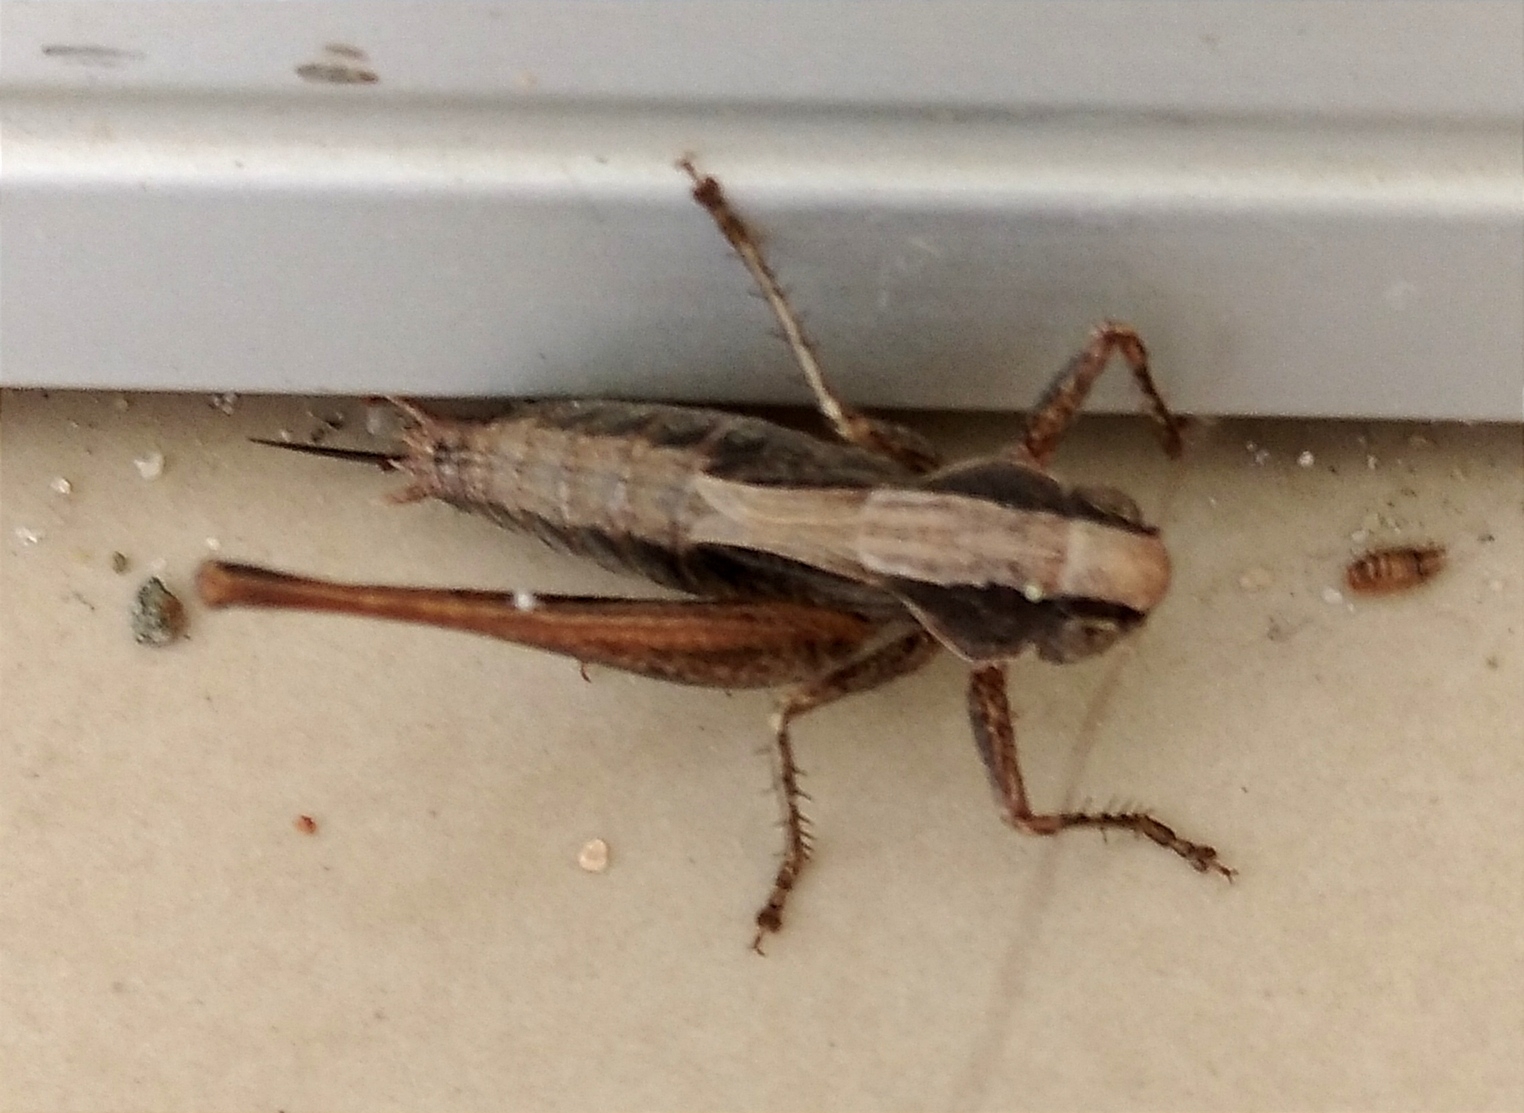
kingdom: Animalia
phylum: Arthropoda
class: Insecta
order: Orthoptera
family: Tettigoniidae
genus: Incertana
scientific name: Incertana incerta
